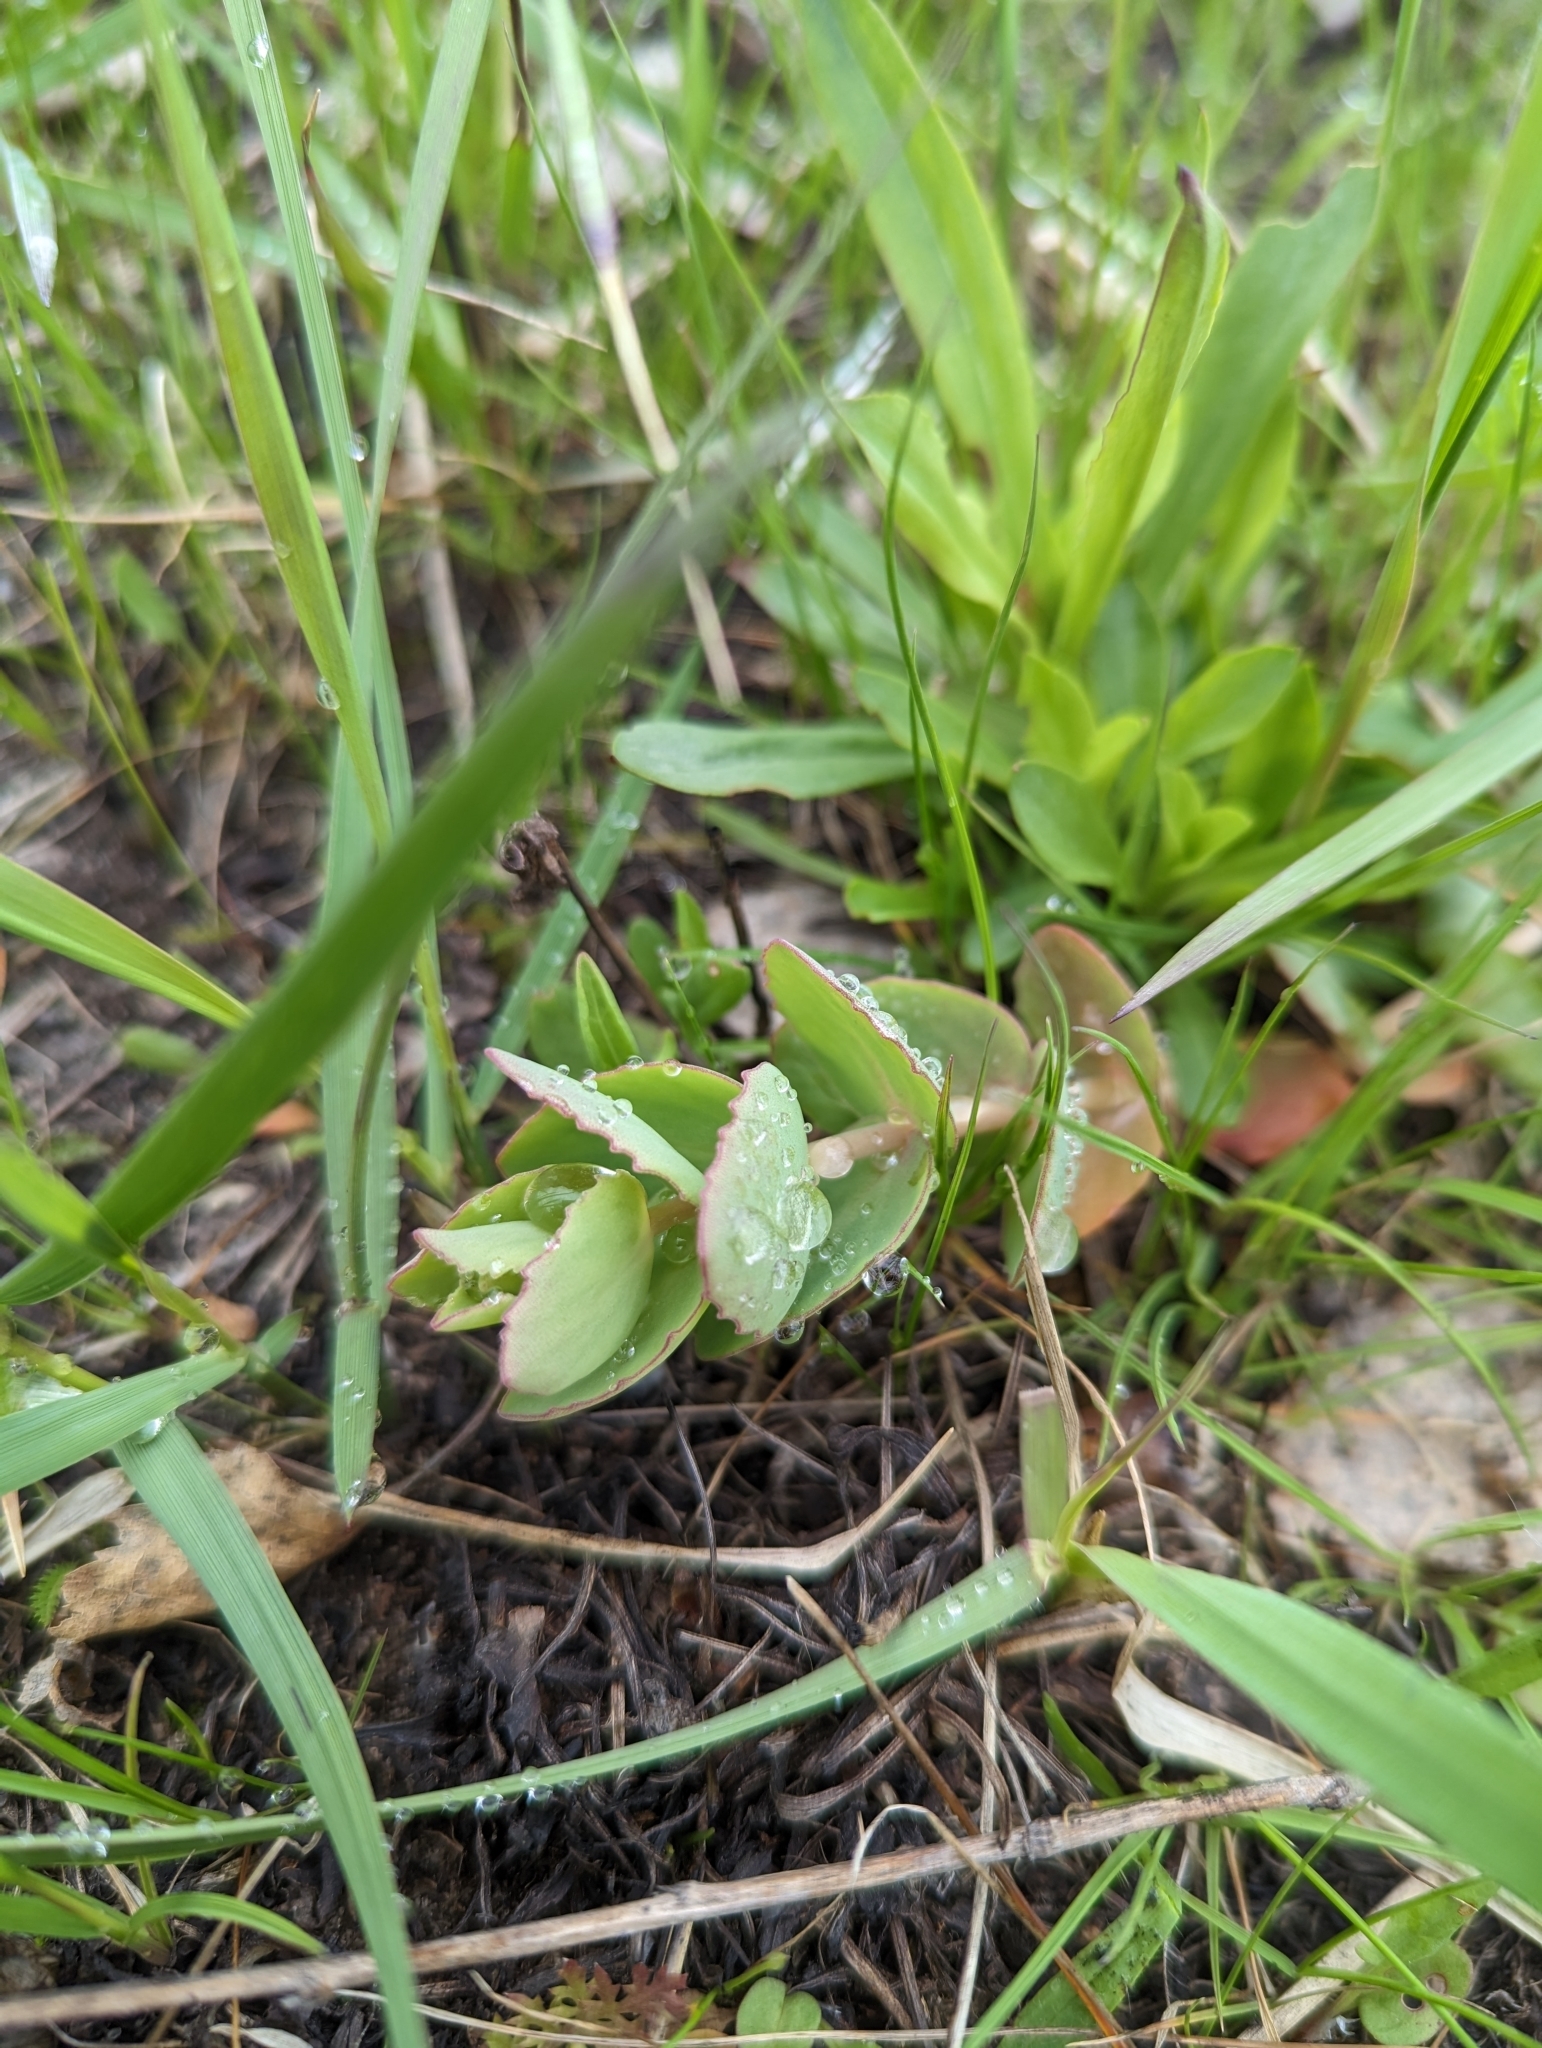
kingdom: Plantae
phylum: Tracheophyta
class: Magnoliopsida
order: Saxifragales
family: Crassulaceae
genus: Hylotelephium
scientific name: Hylotelephium maximum
